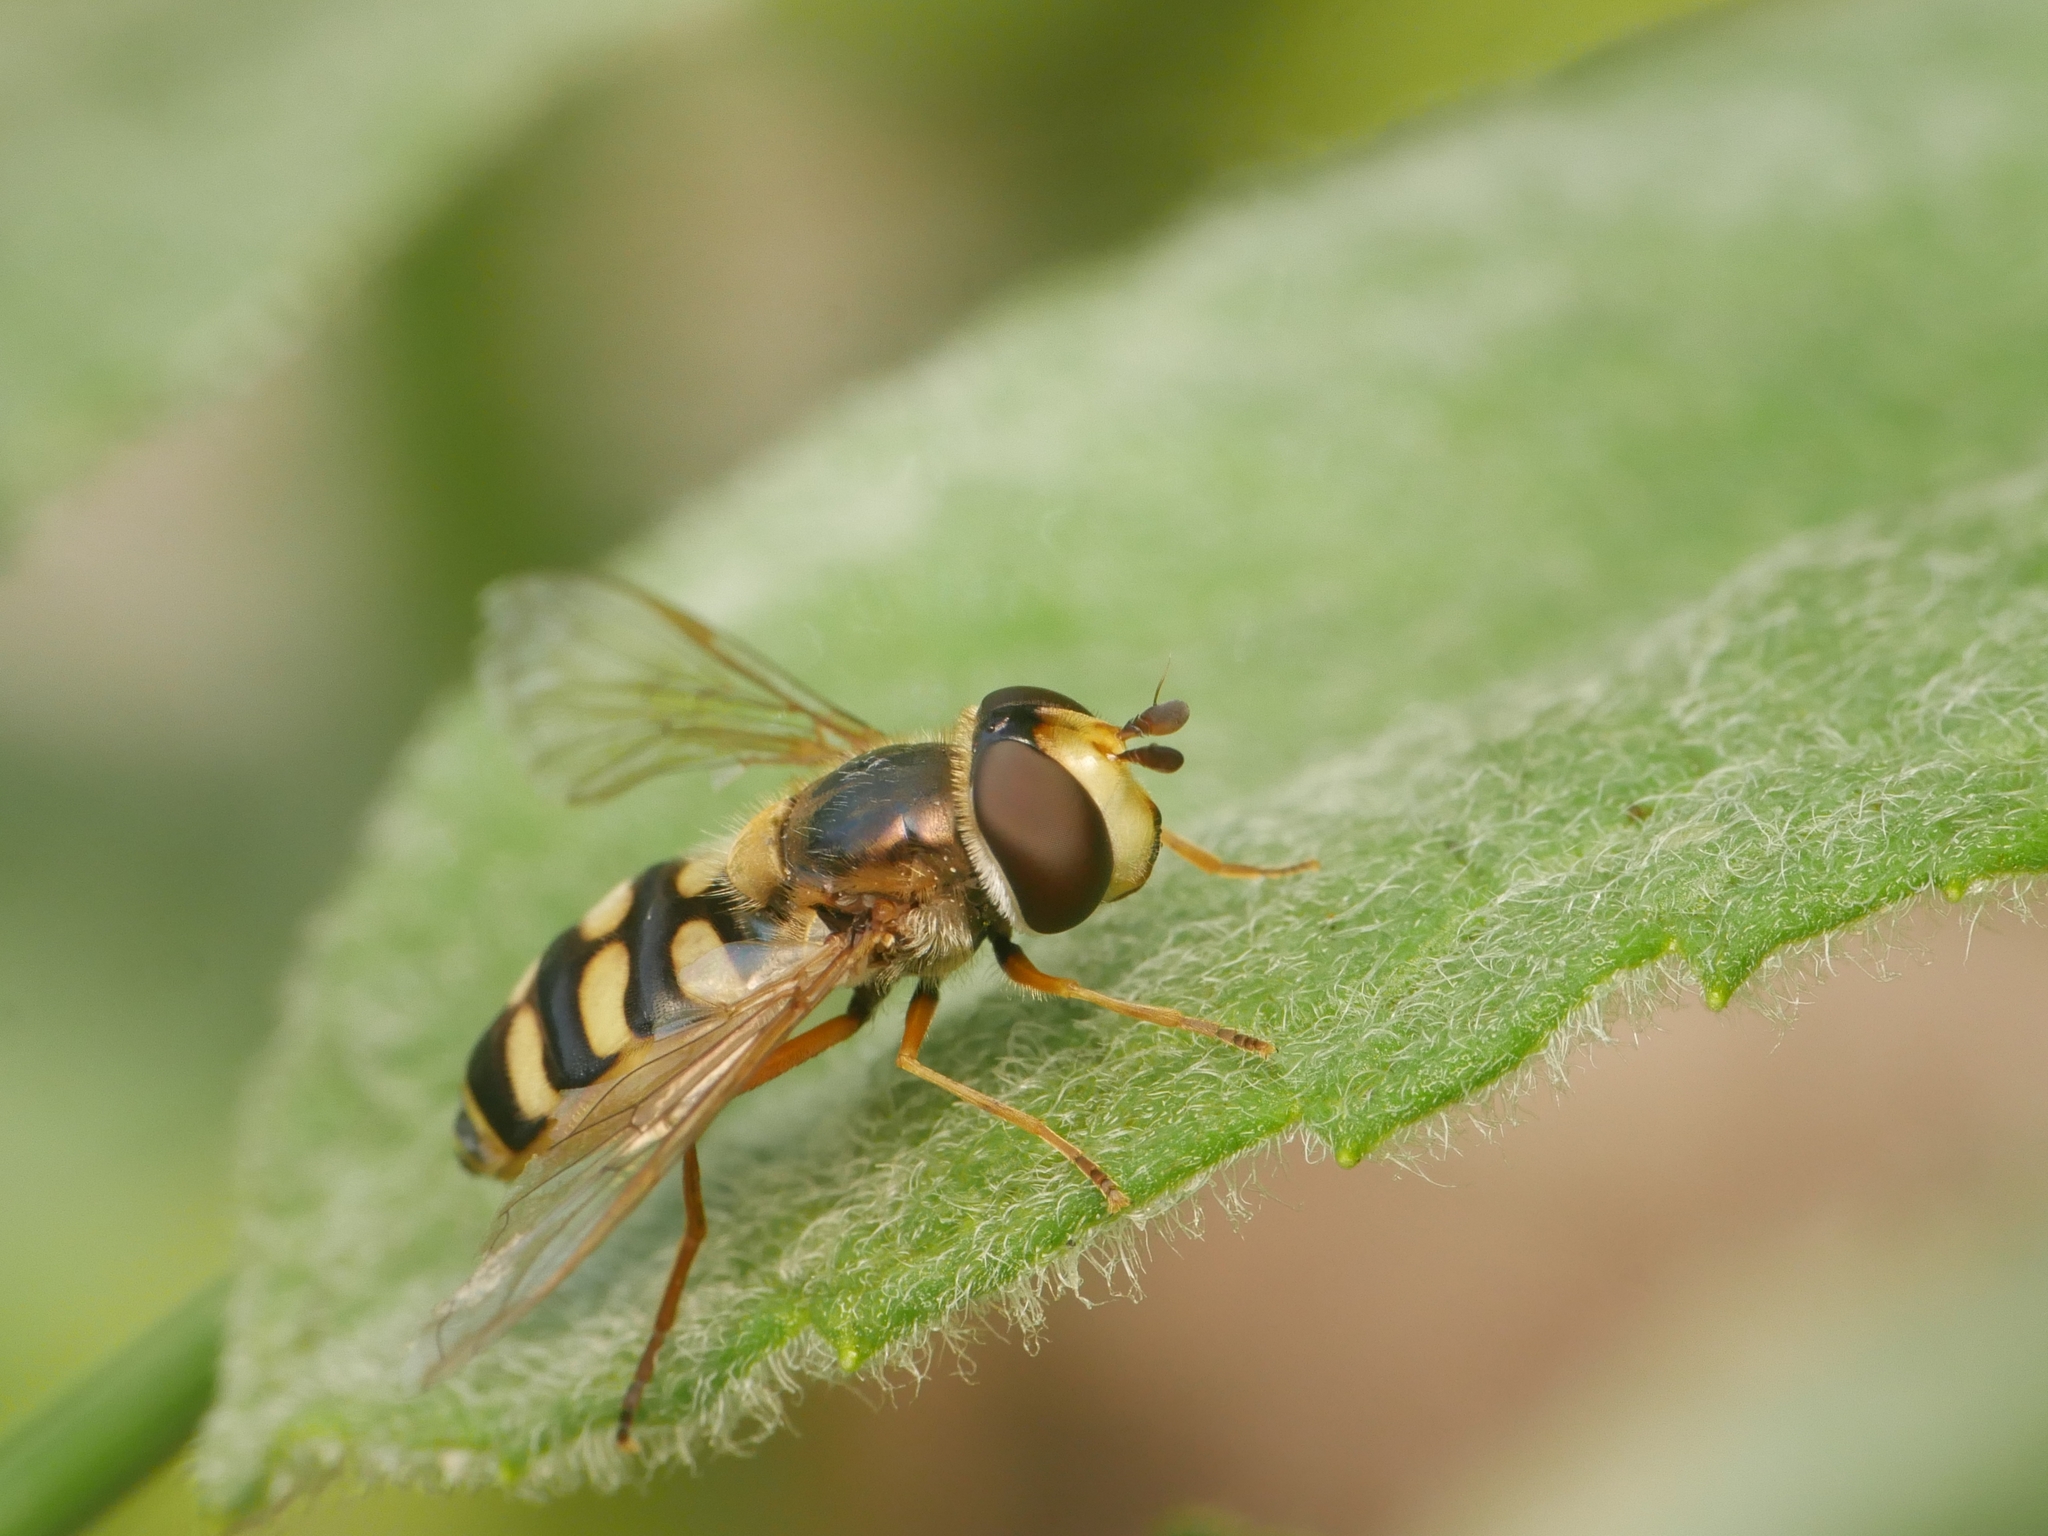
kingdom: Animalia
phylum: Arthropoda
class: Insecta
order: Diptera
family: Syrphidae
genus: Eupeodes
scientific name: Eupeodes corollae
